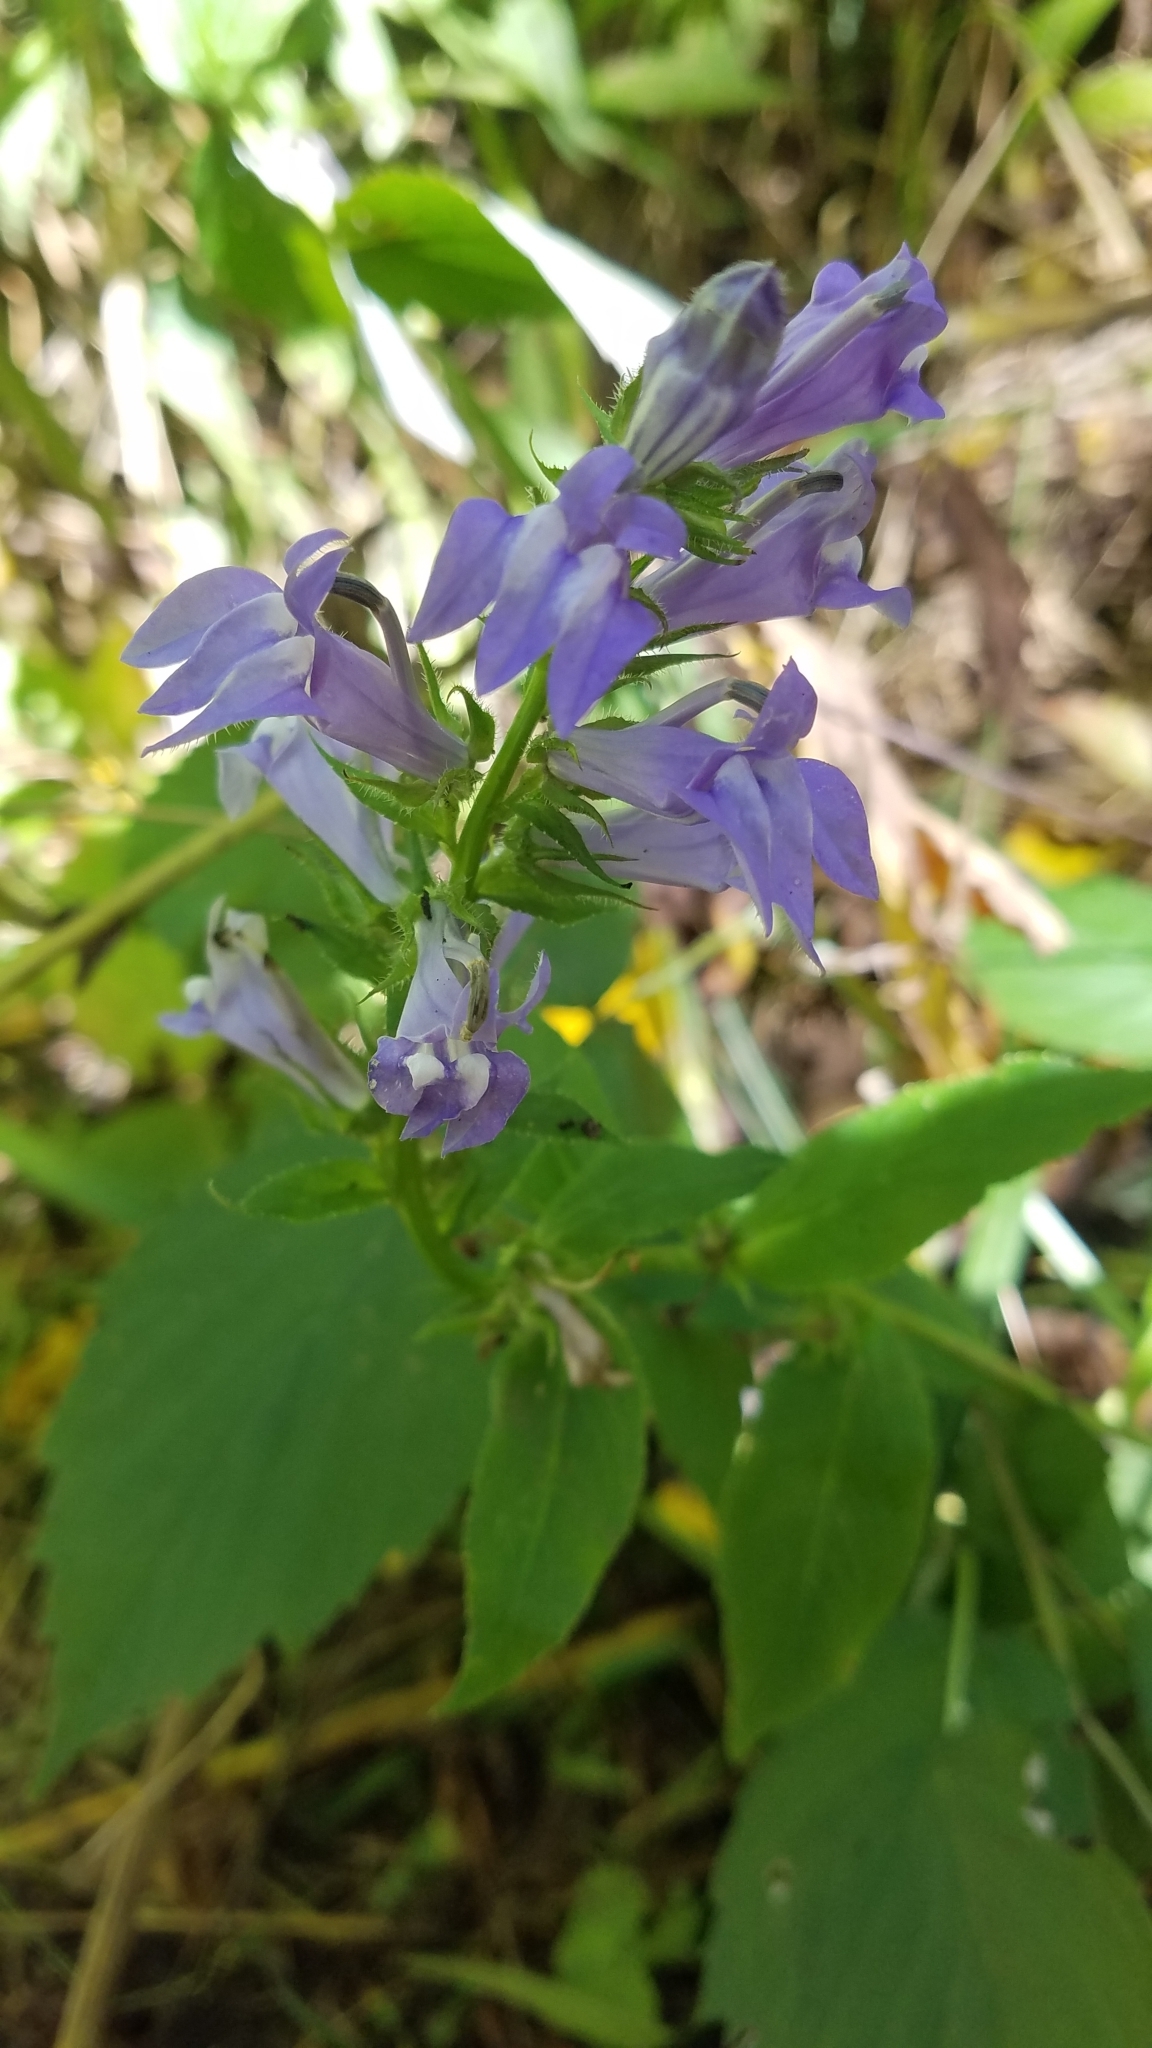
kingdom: Plantae
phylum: Tracheophyta
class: Magnoliopsida
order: Asterales
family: Campanulaceae
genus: Lobelia
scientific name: Lobelia siphilitica
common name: Great lobelia
